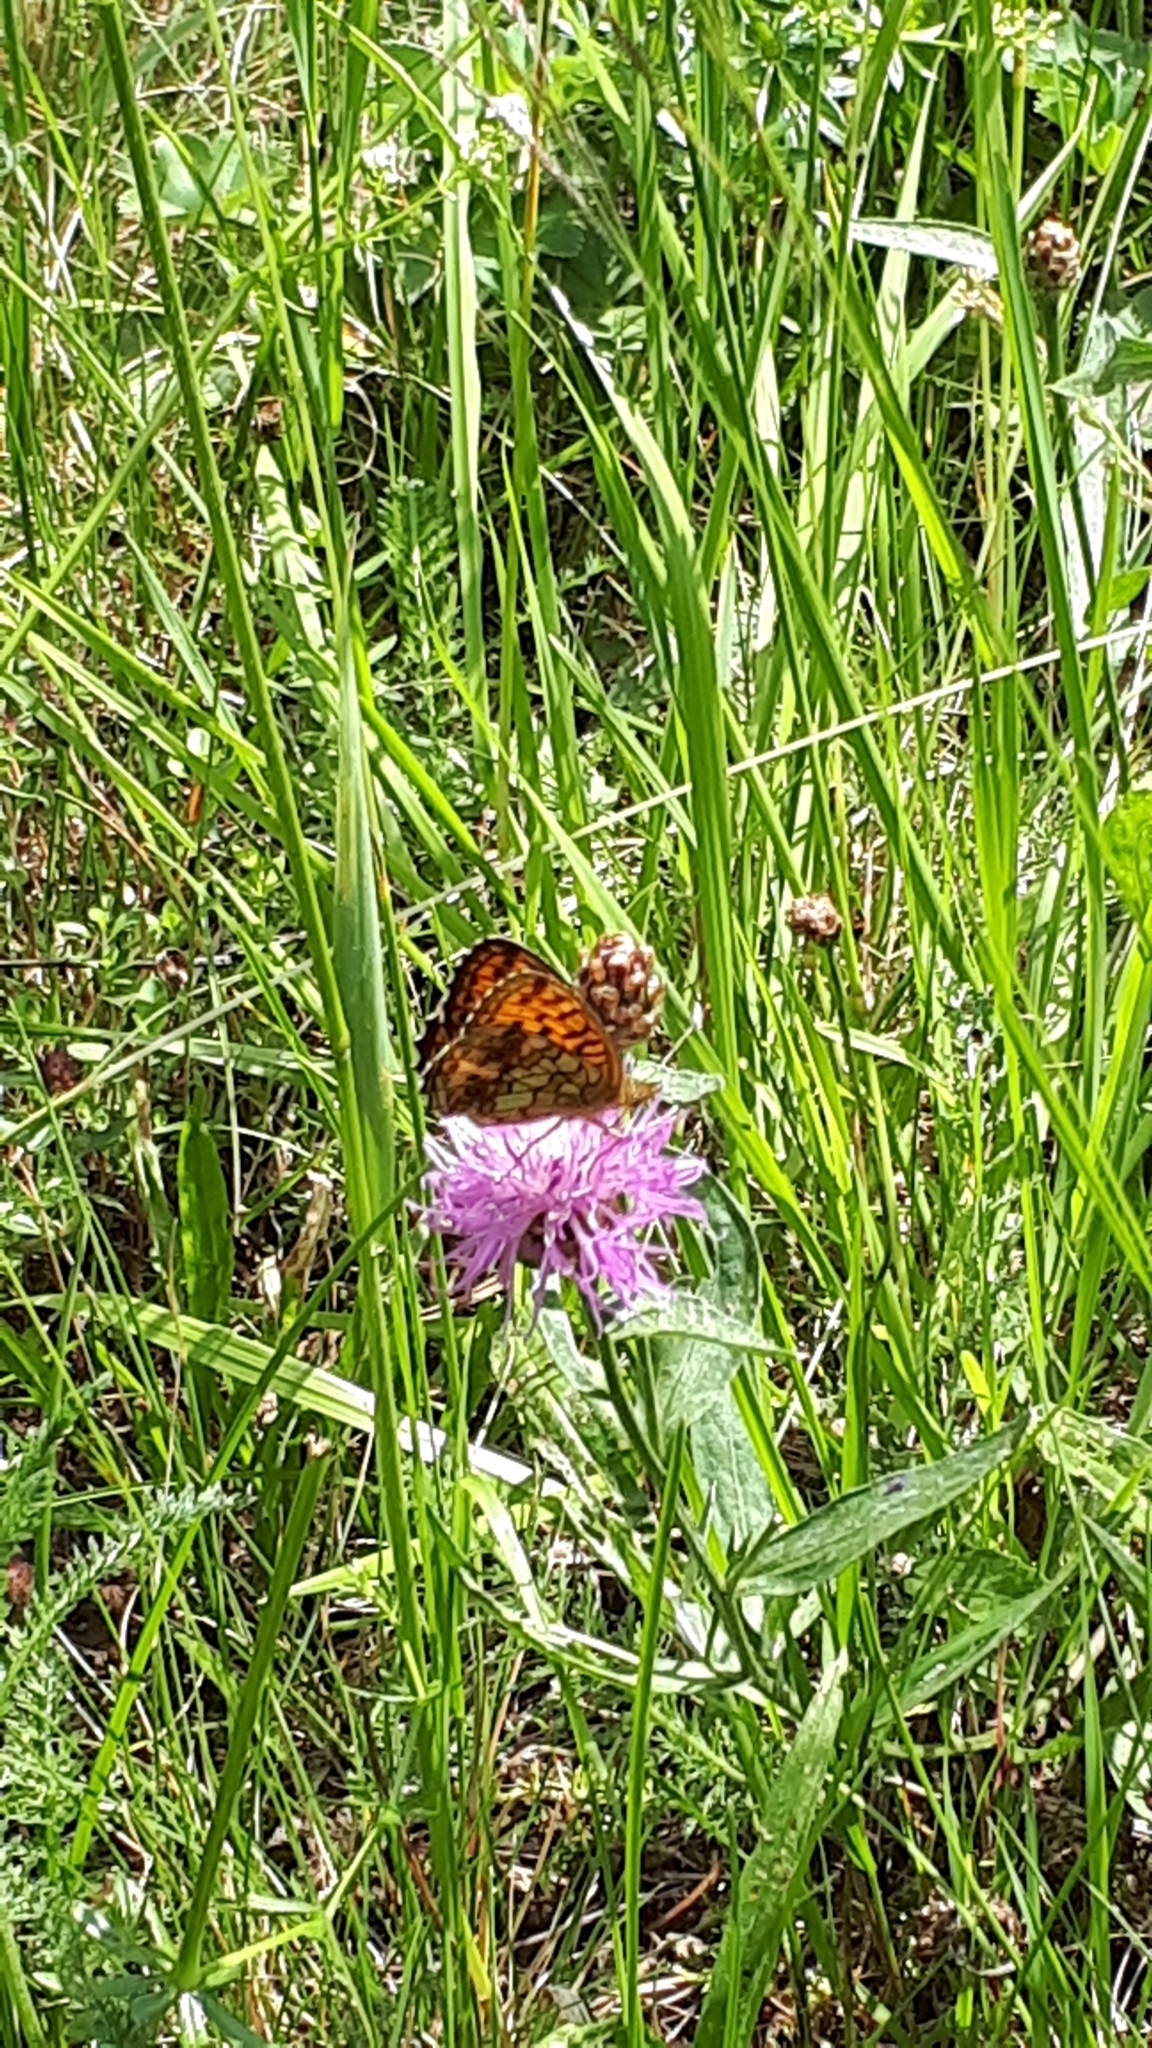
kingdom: Animalia
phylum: Arthropoda
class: Insecta
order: Lepidoptera
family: Nymphalidae
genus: Brenthis
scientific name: Brenthis ino
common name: Lesser marbled fritillary
